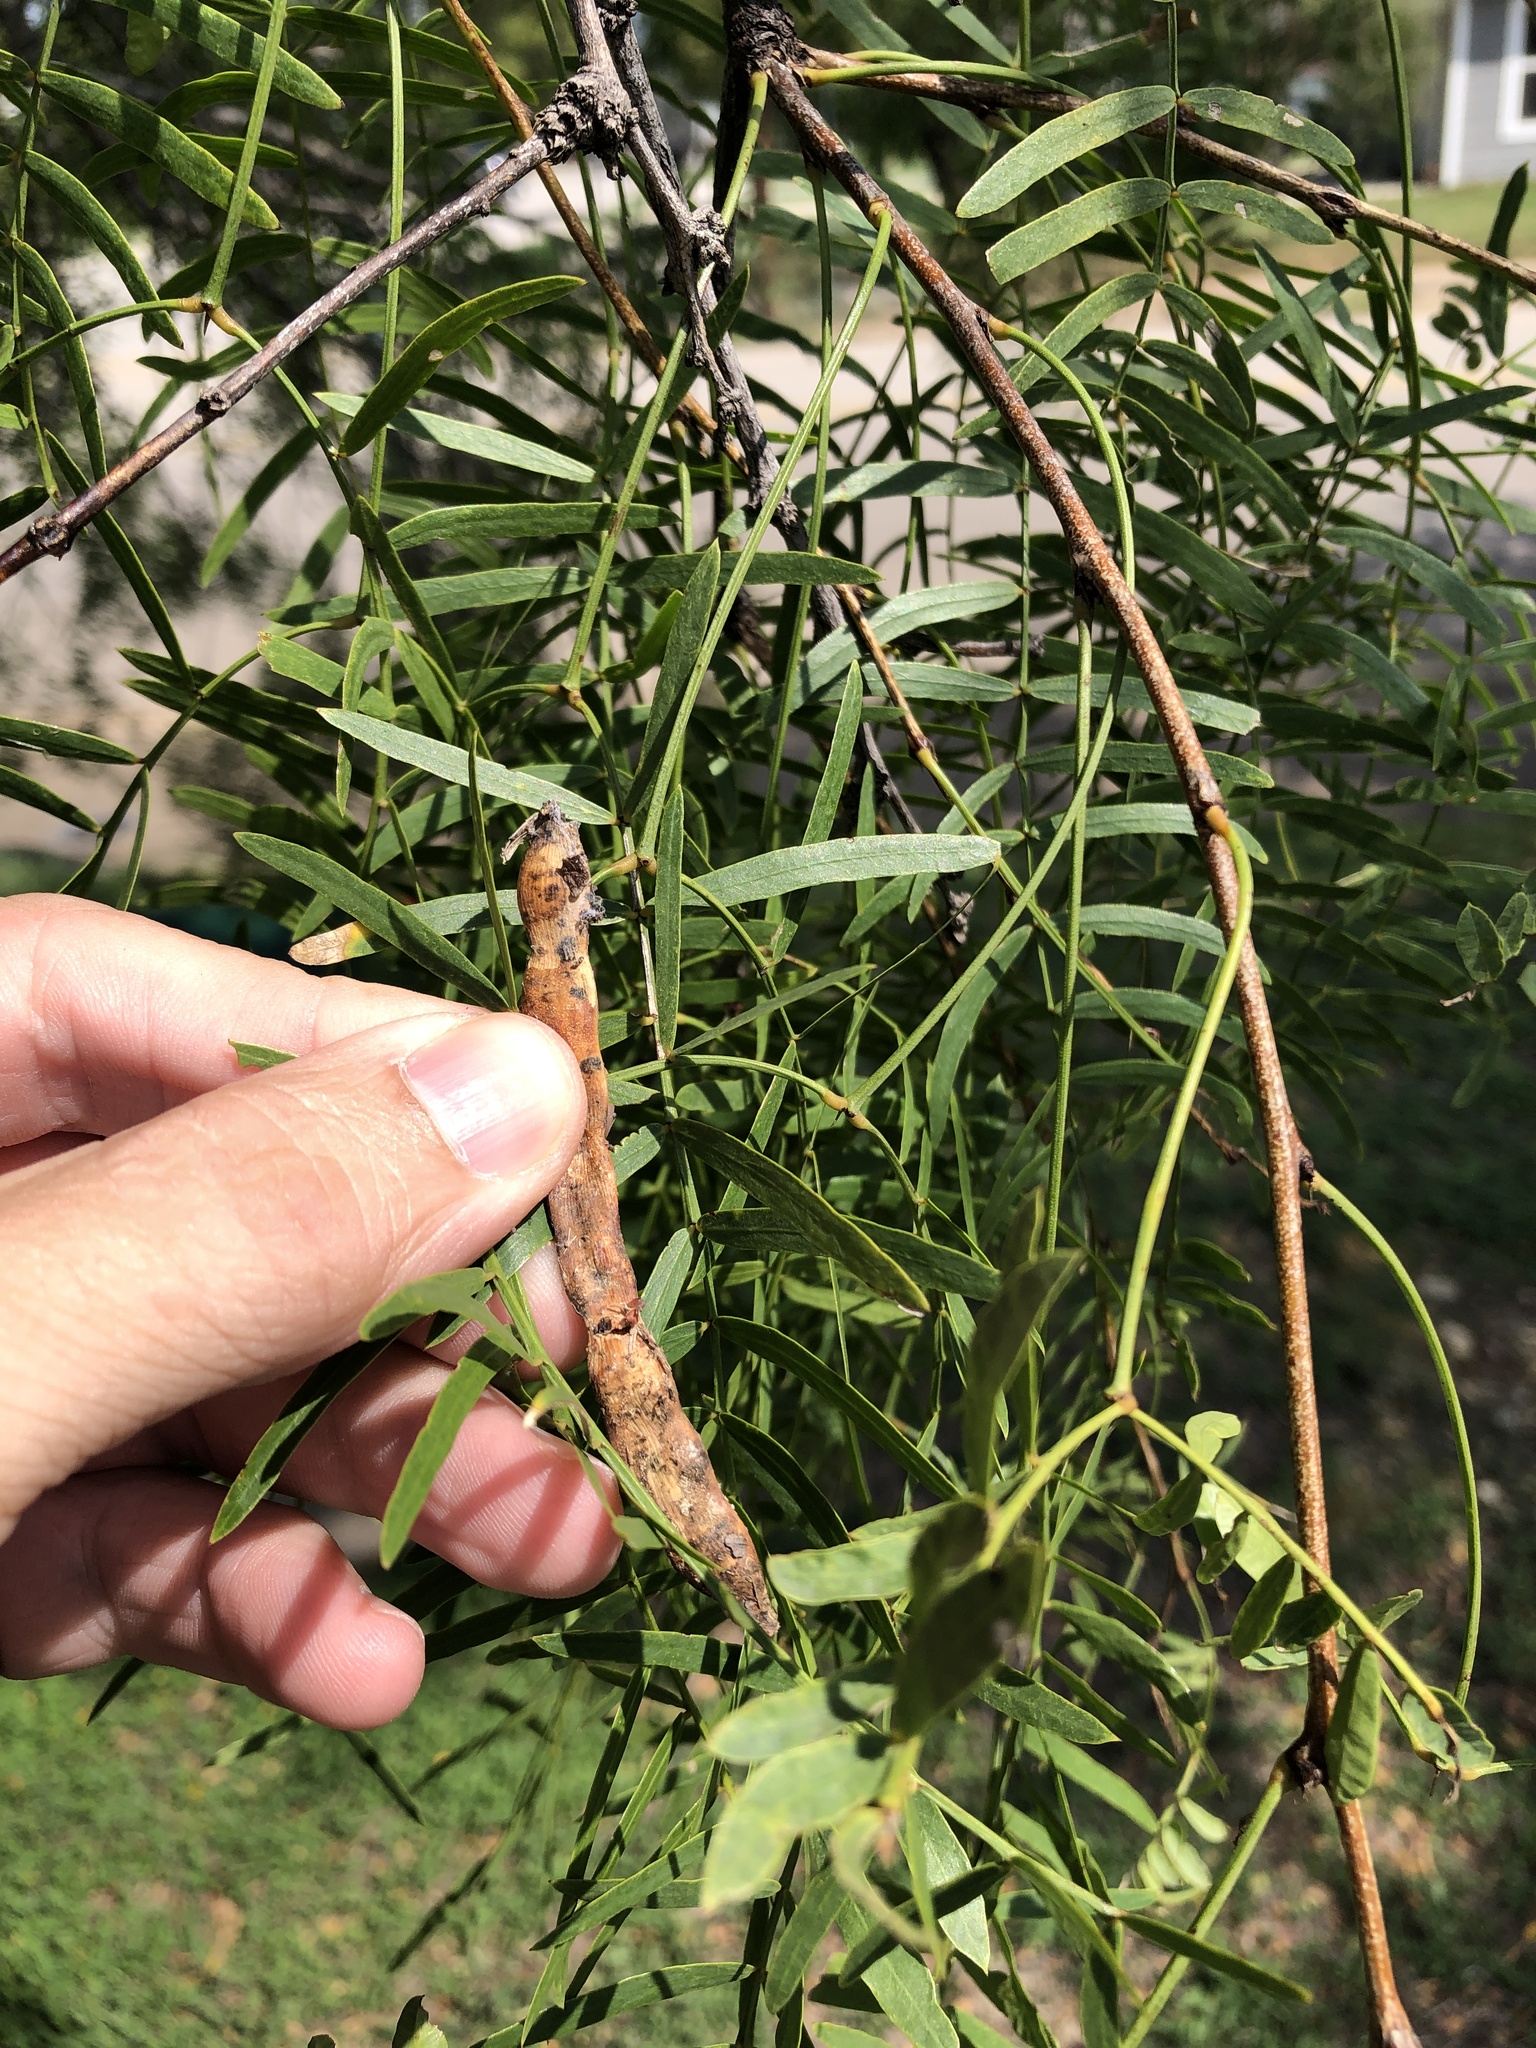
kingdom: Plantae
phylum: Tracheophyta
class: Magnoliopsida
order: Fabales
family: Fabaceae
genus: Prosopis
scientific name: Prosopis glandulosa
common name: Honey mesquite
